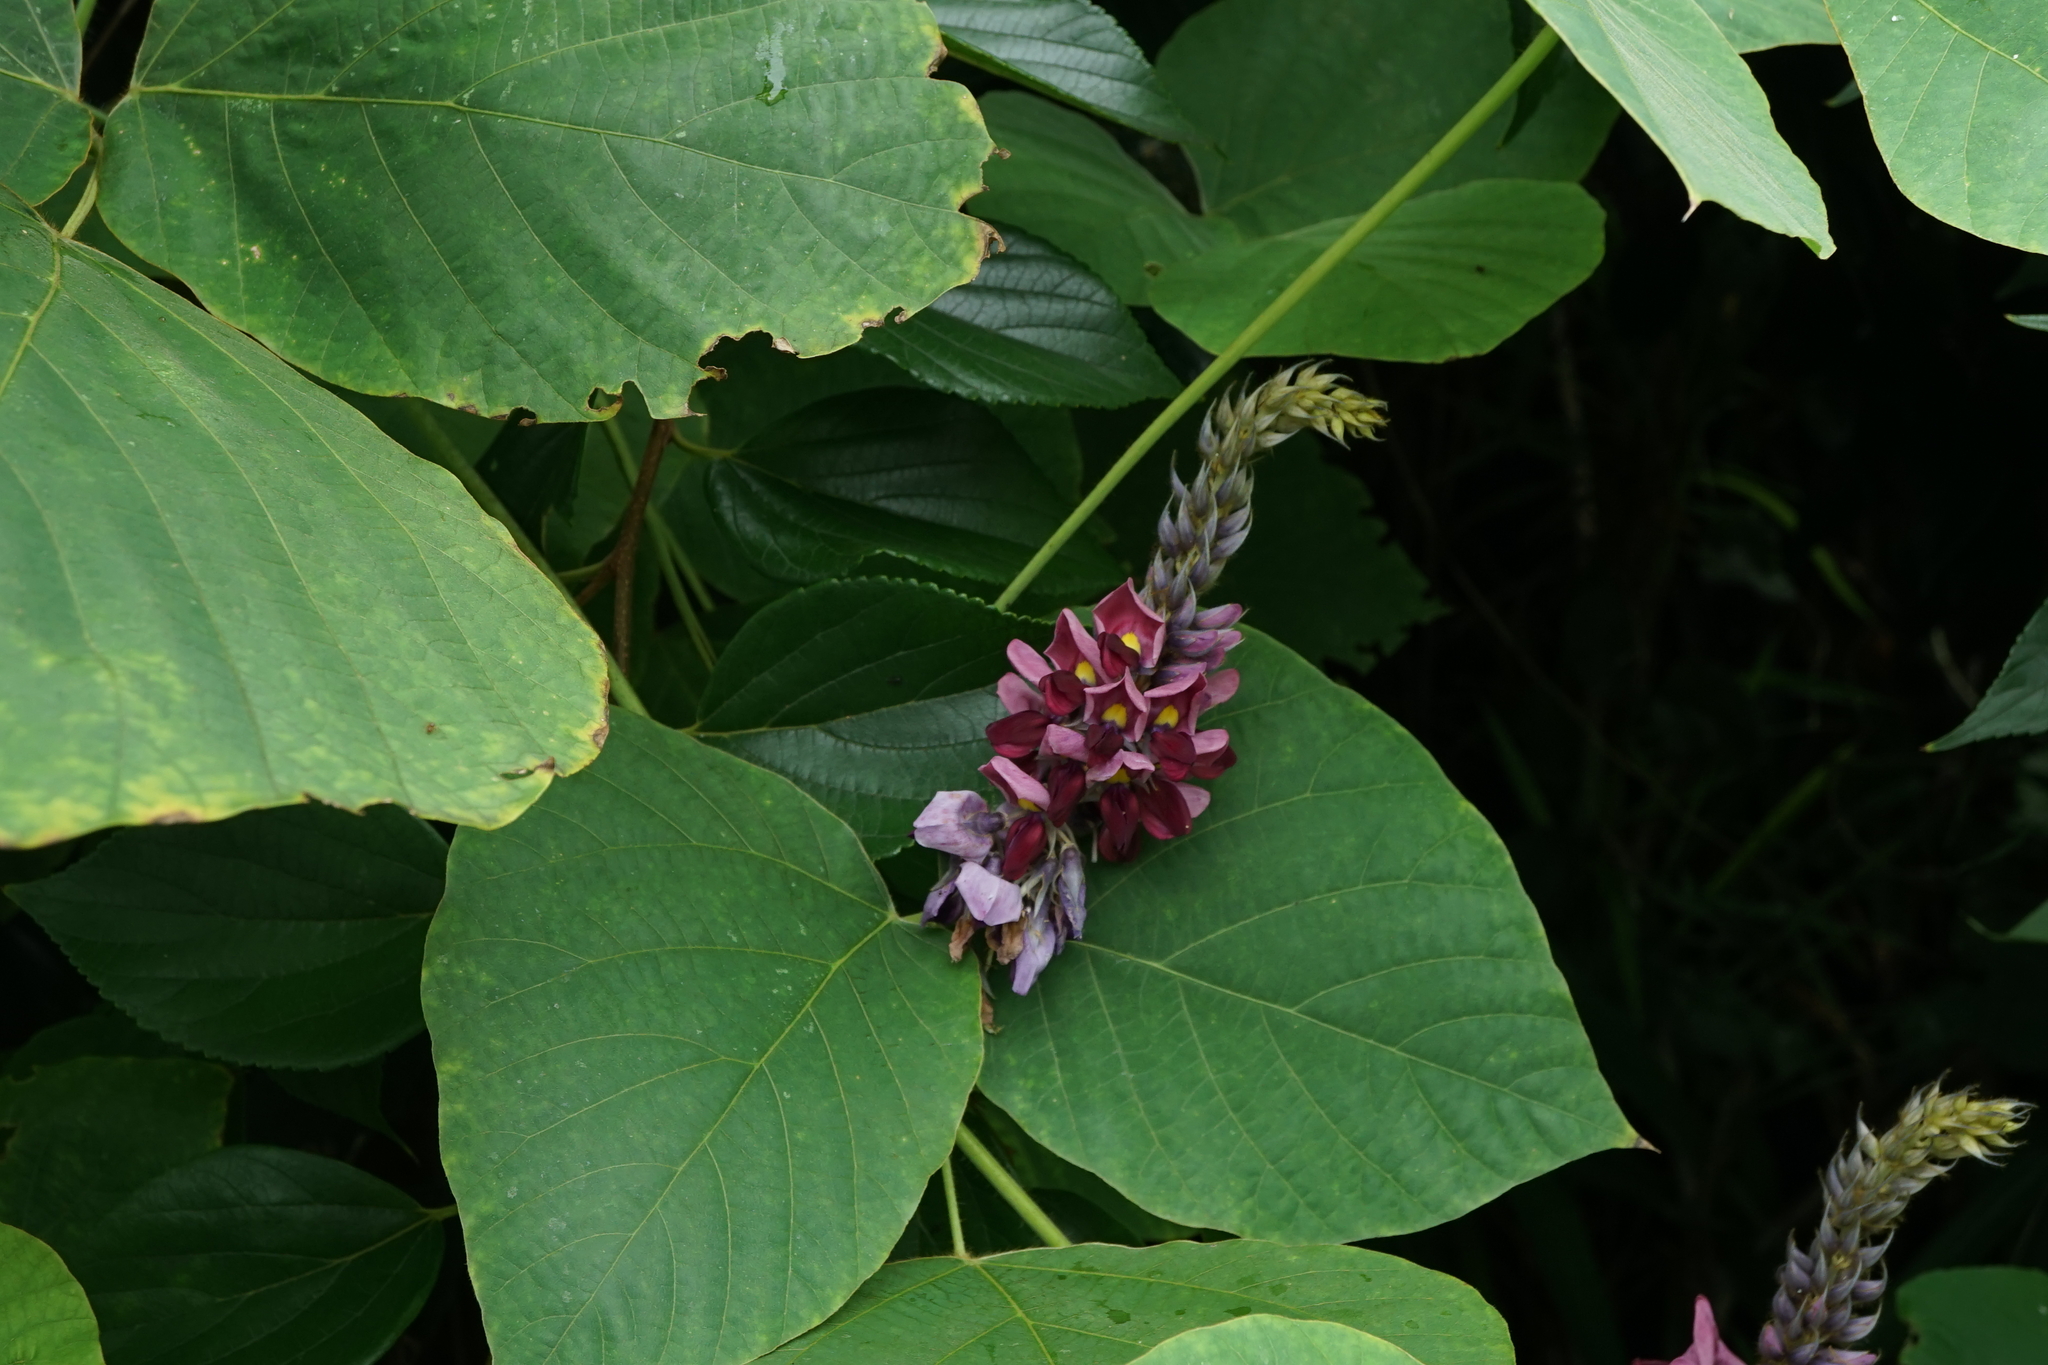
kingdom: Plantae
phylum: Tracheophyta
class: Magnoliopsida
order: Fabales
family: Fabaceae
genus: Pueraria
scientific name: Pueraria montana
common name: Kudzu
